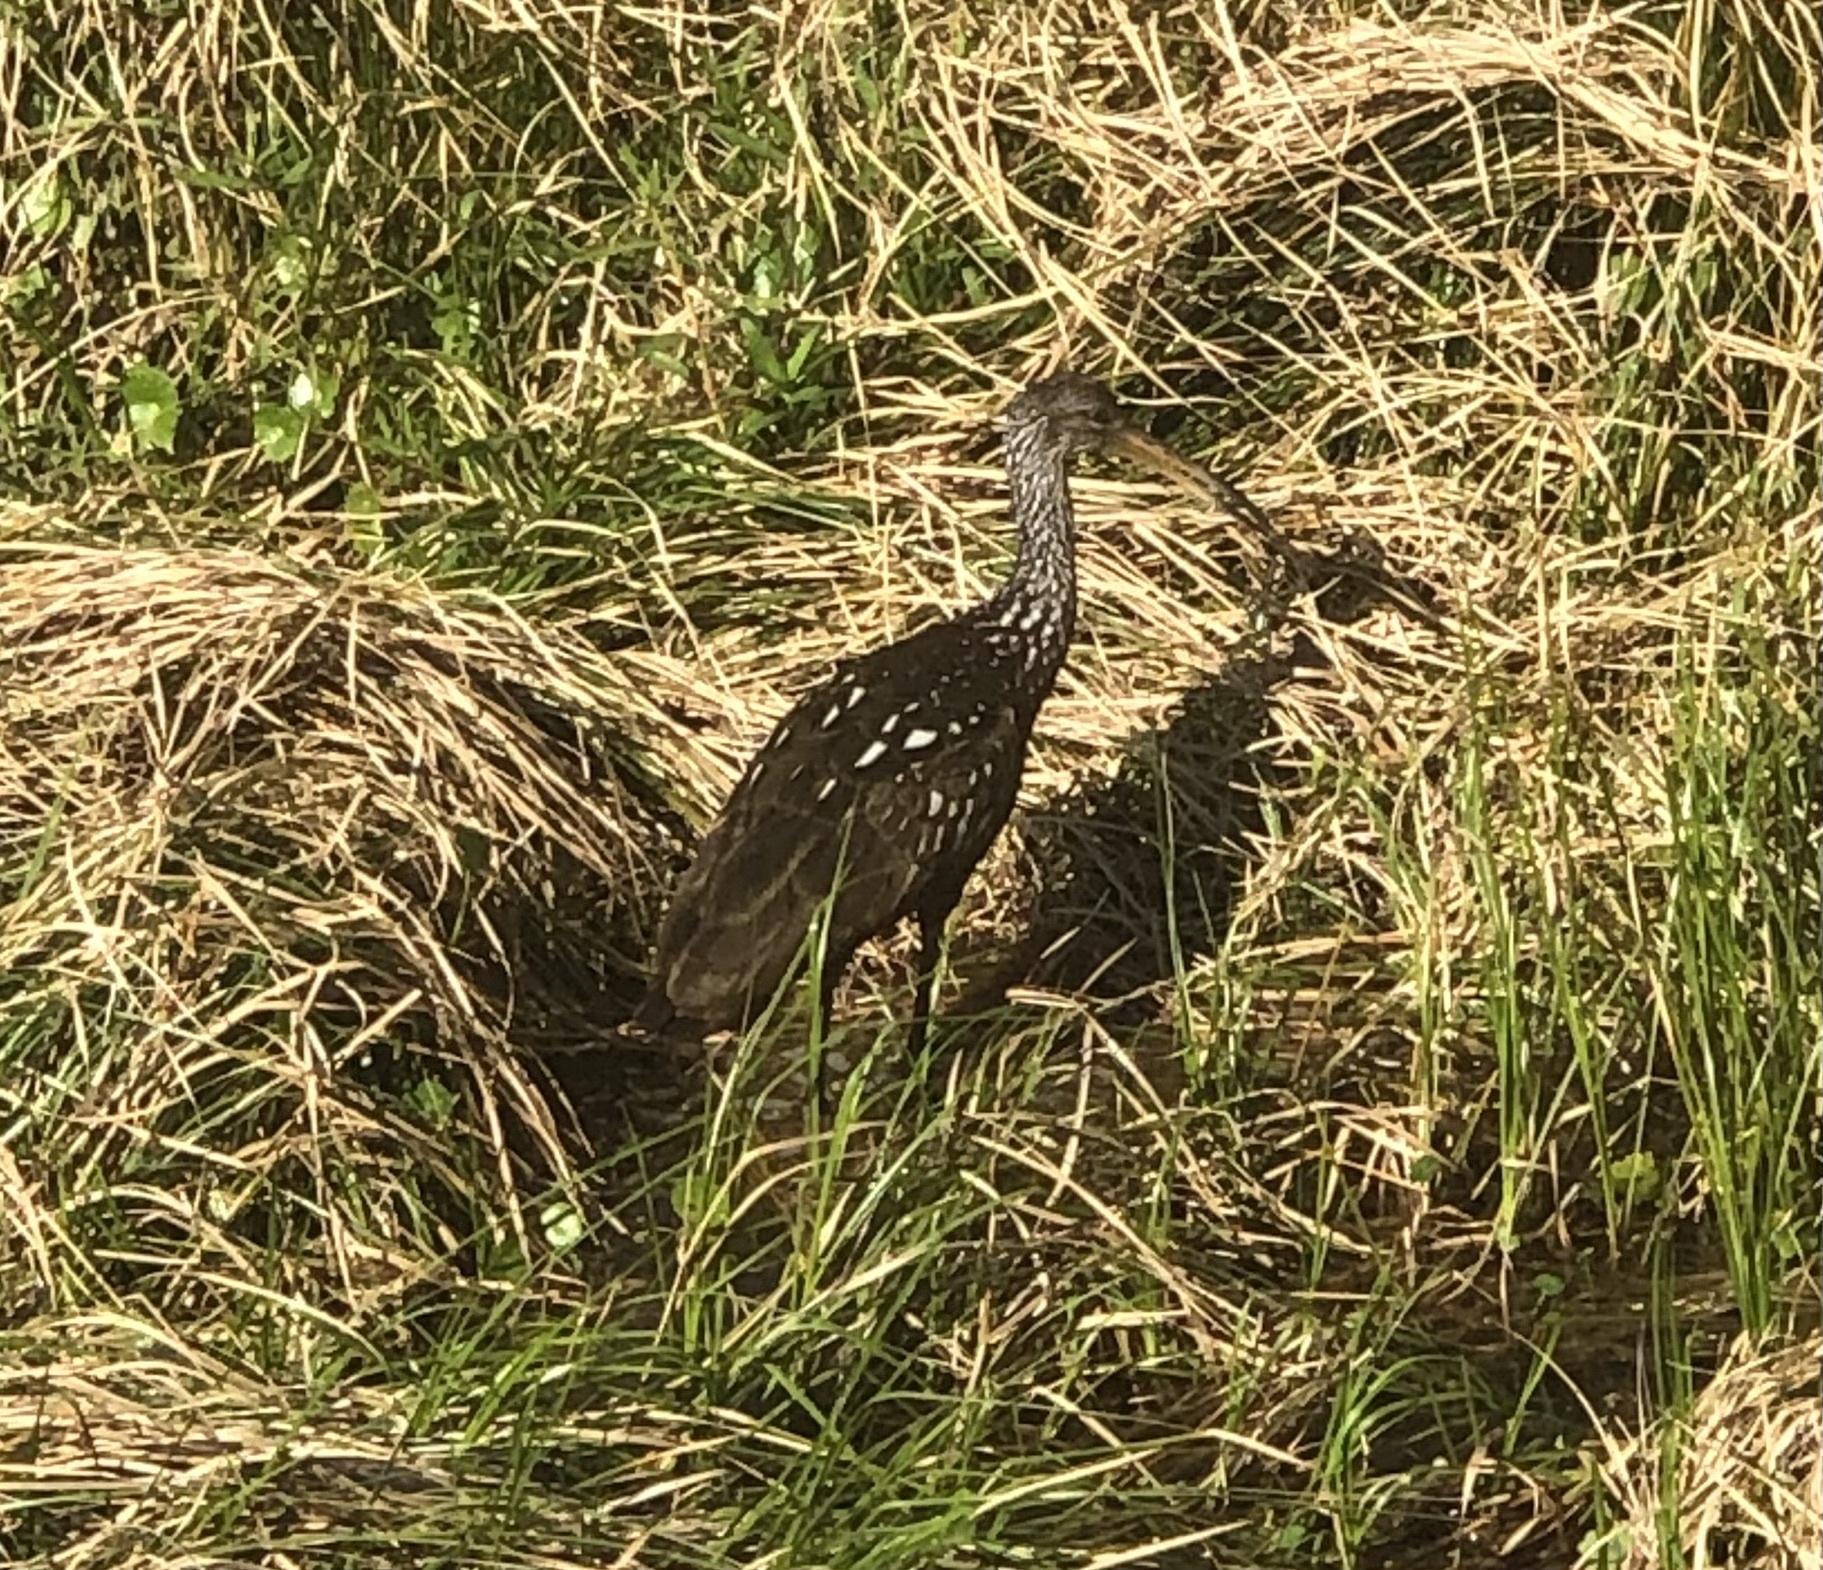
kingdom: Animalia
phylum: Chordata
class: Aves
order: Gruiformes
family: Aramidae
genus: Aramus
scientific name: Aramus guarauna
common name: Limpkin
